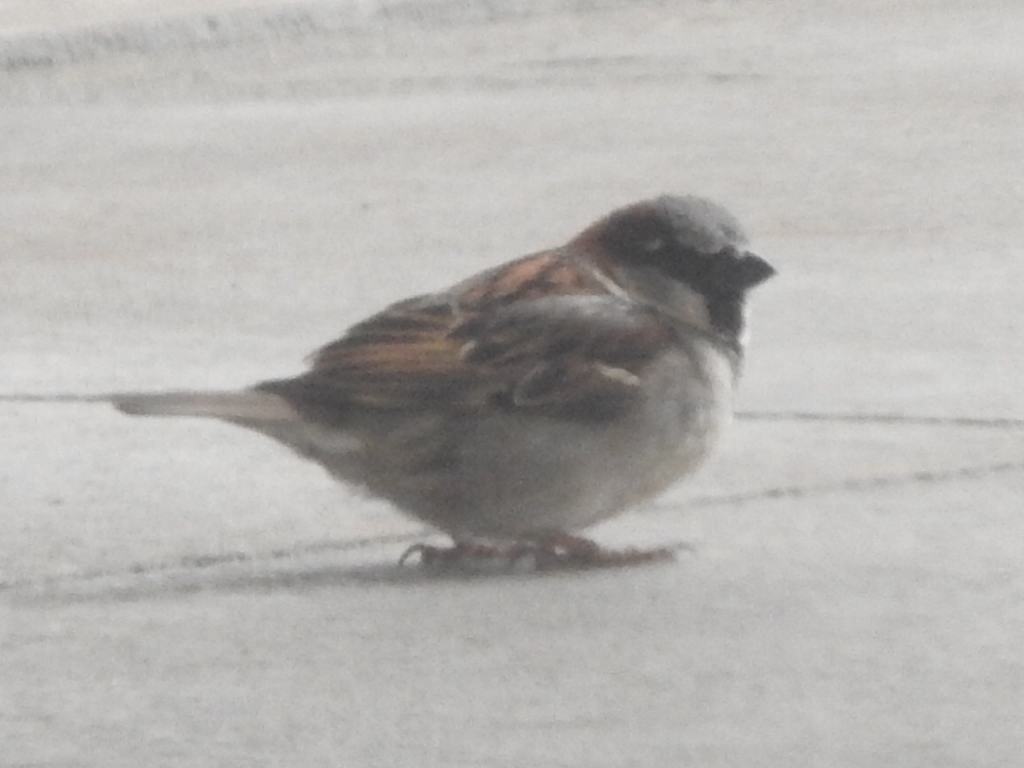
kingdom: Animalia
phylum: Chordata
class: Aves
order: Passeriformes
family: Passeridae
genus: Passer
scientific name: Passer domesticus
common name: House sparrow
